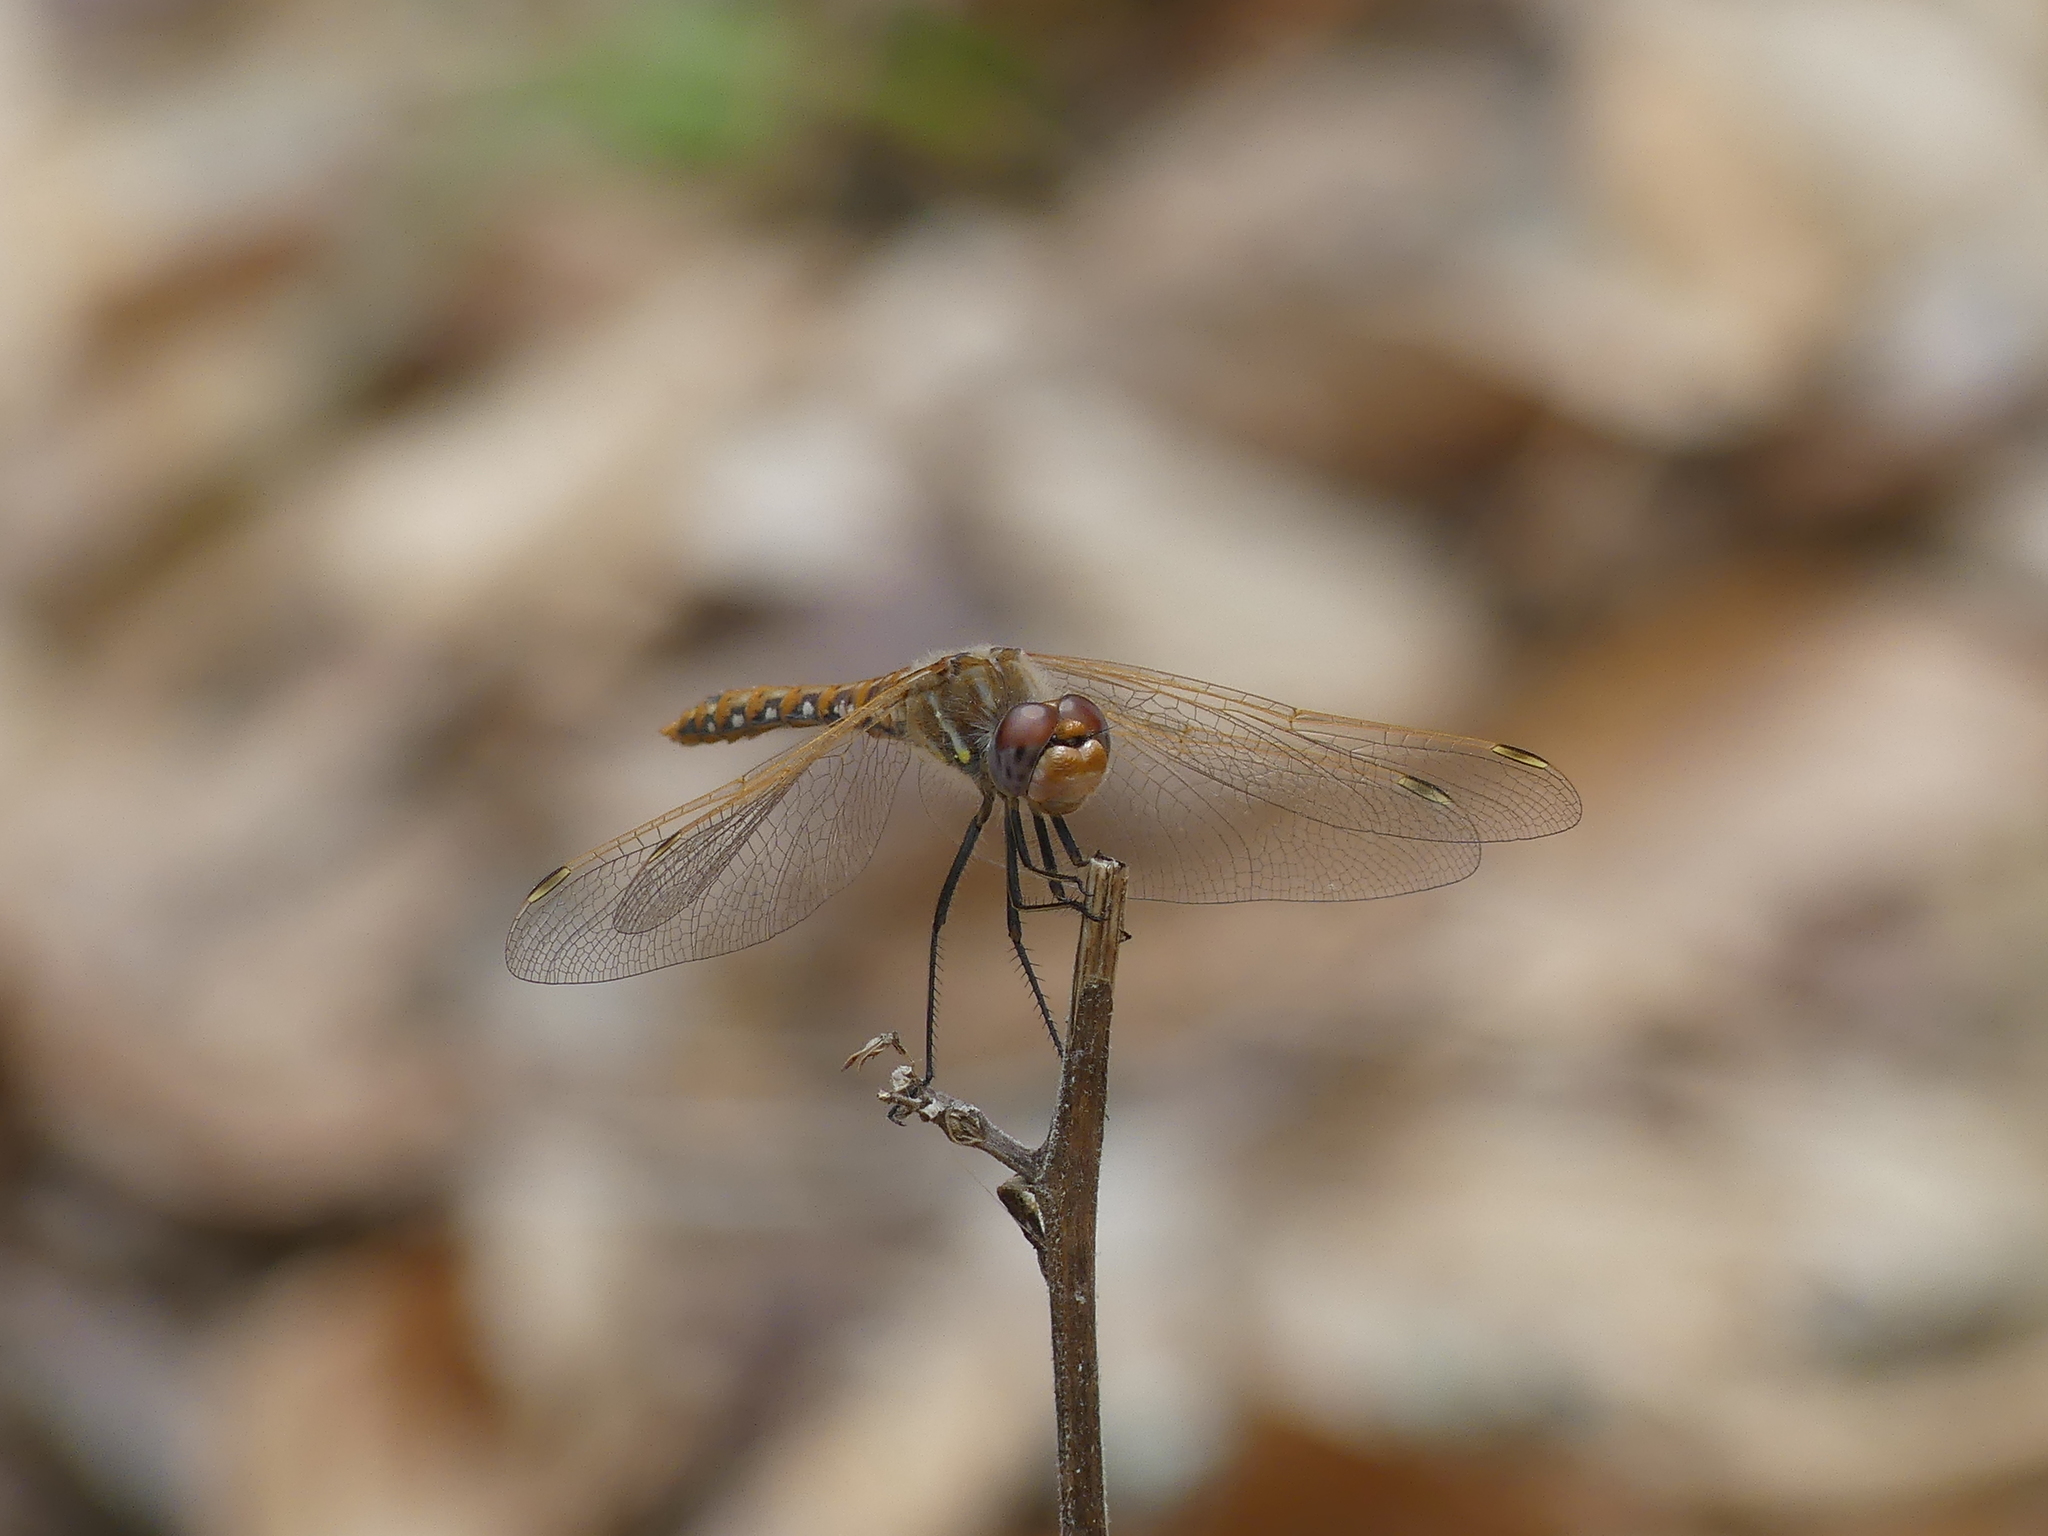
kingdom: Animalia
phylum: Arthropoda
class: Insecta
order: Odonata
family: Libellulidae
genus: Sympetrum
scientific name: Sympetrum corruptum
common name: Variegated meadowhawk
